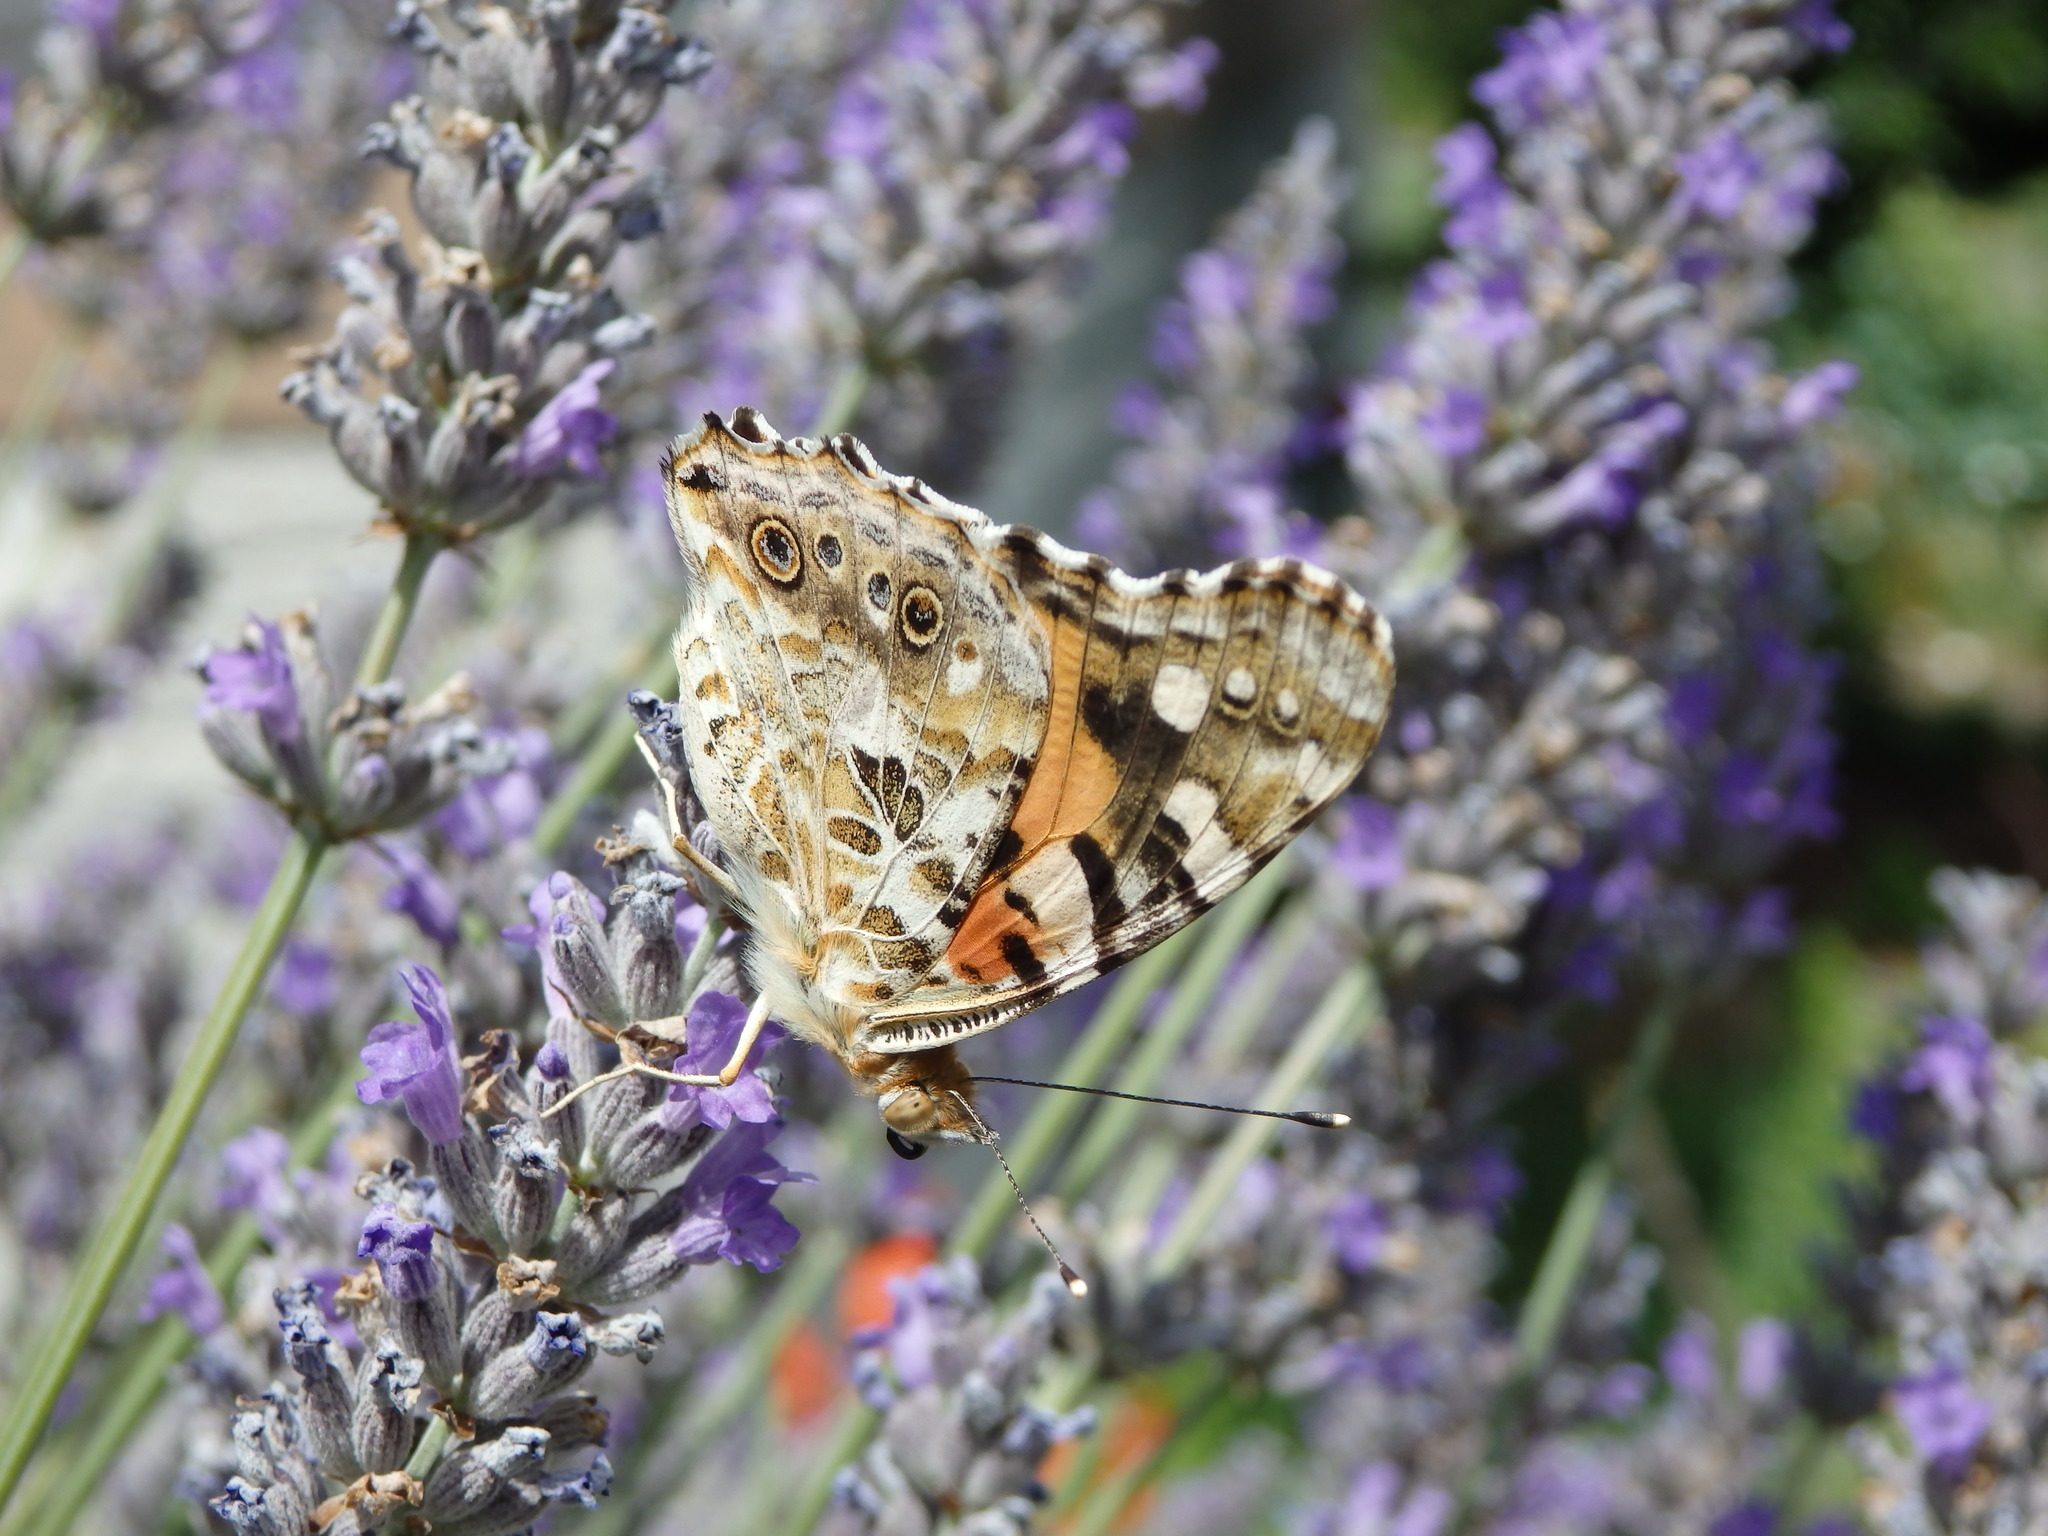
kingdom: Animalia
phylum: Arthropoda
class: Insecta
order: Lepidoptera
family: Nymphalidae
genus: Vanessa
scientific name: Vanessa cardui
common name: Painted lady
